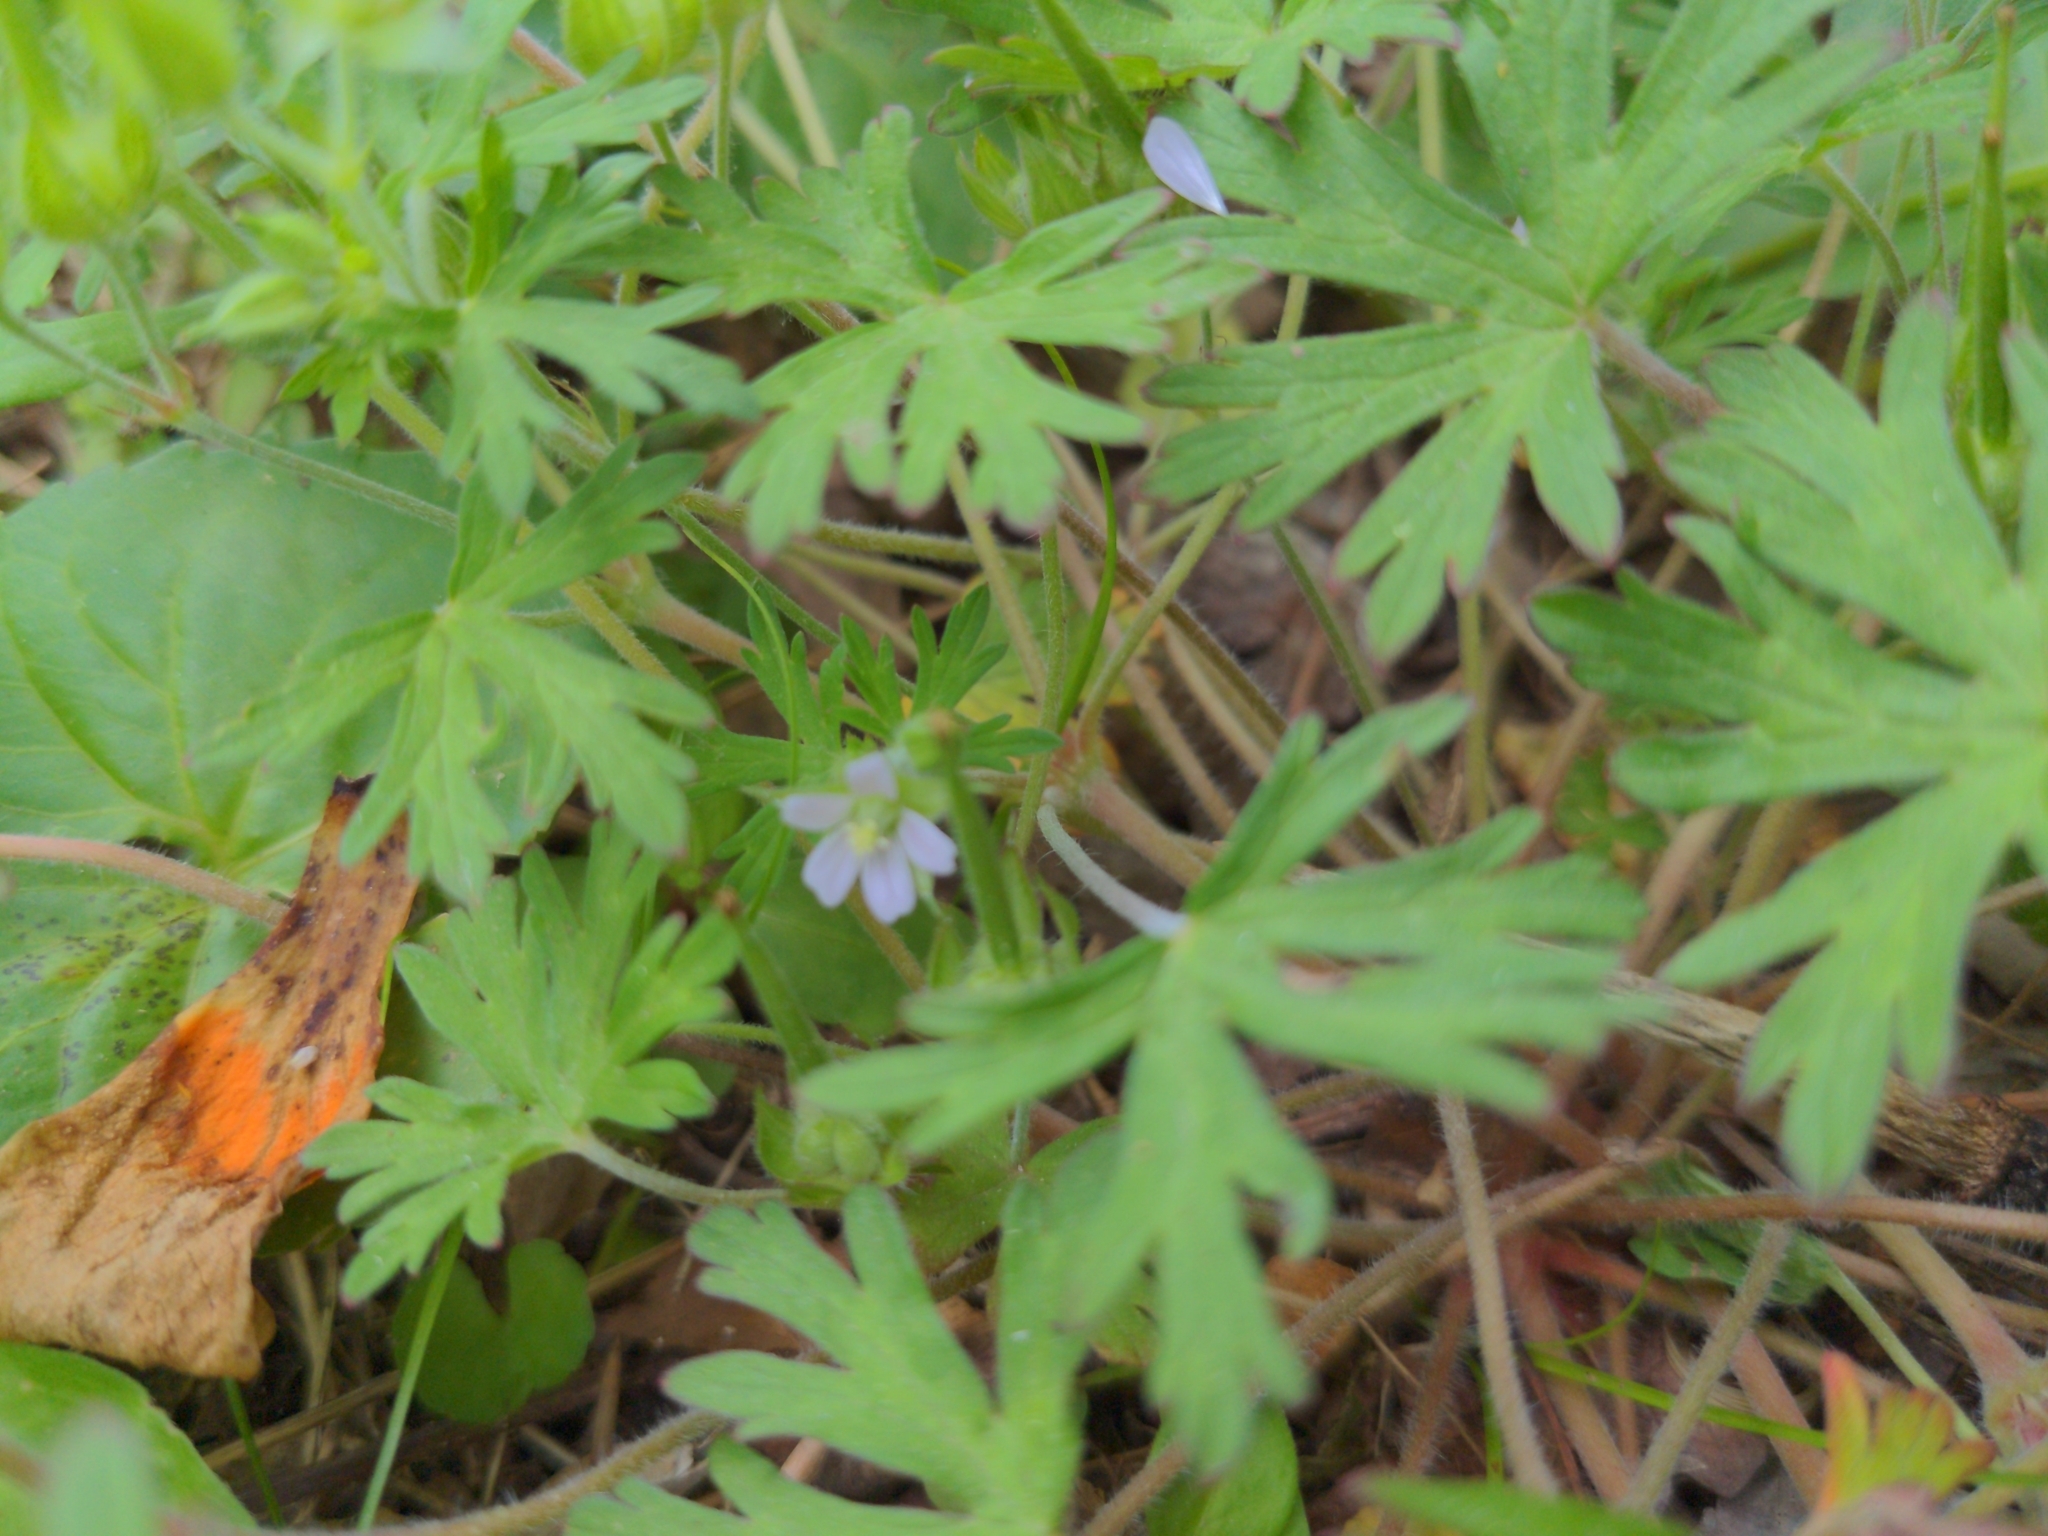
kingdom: Plantae
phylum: Tracheophyta
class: Magnoliopsida
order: Geraniales
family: Geraniaceae
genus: Geranium
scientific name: Geranium carolinianum
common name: Carolina crane's-bill
